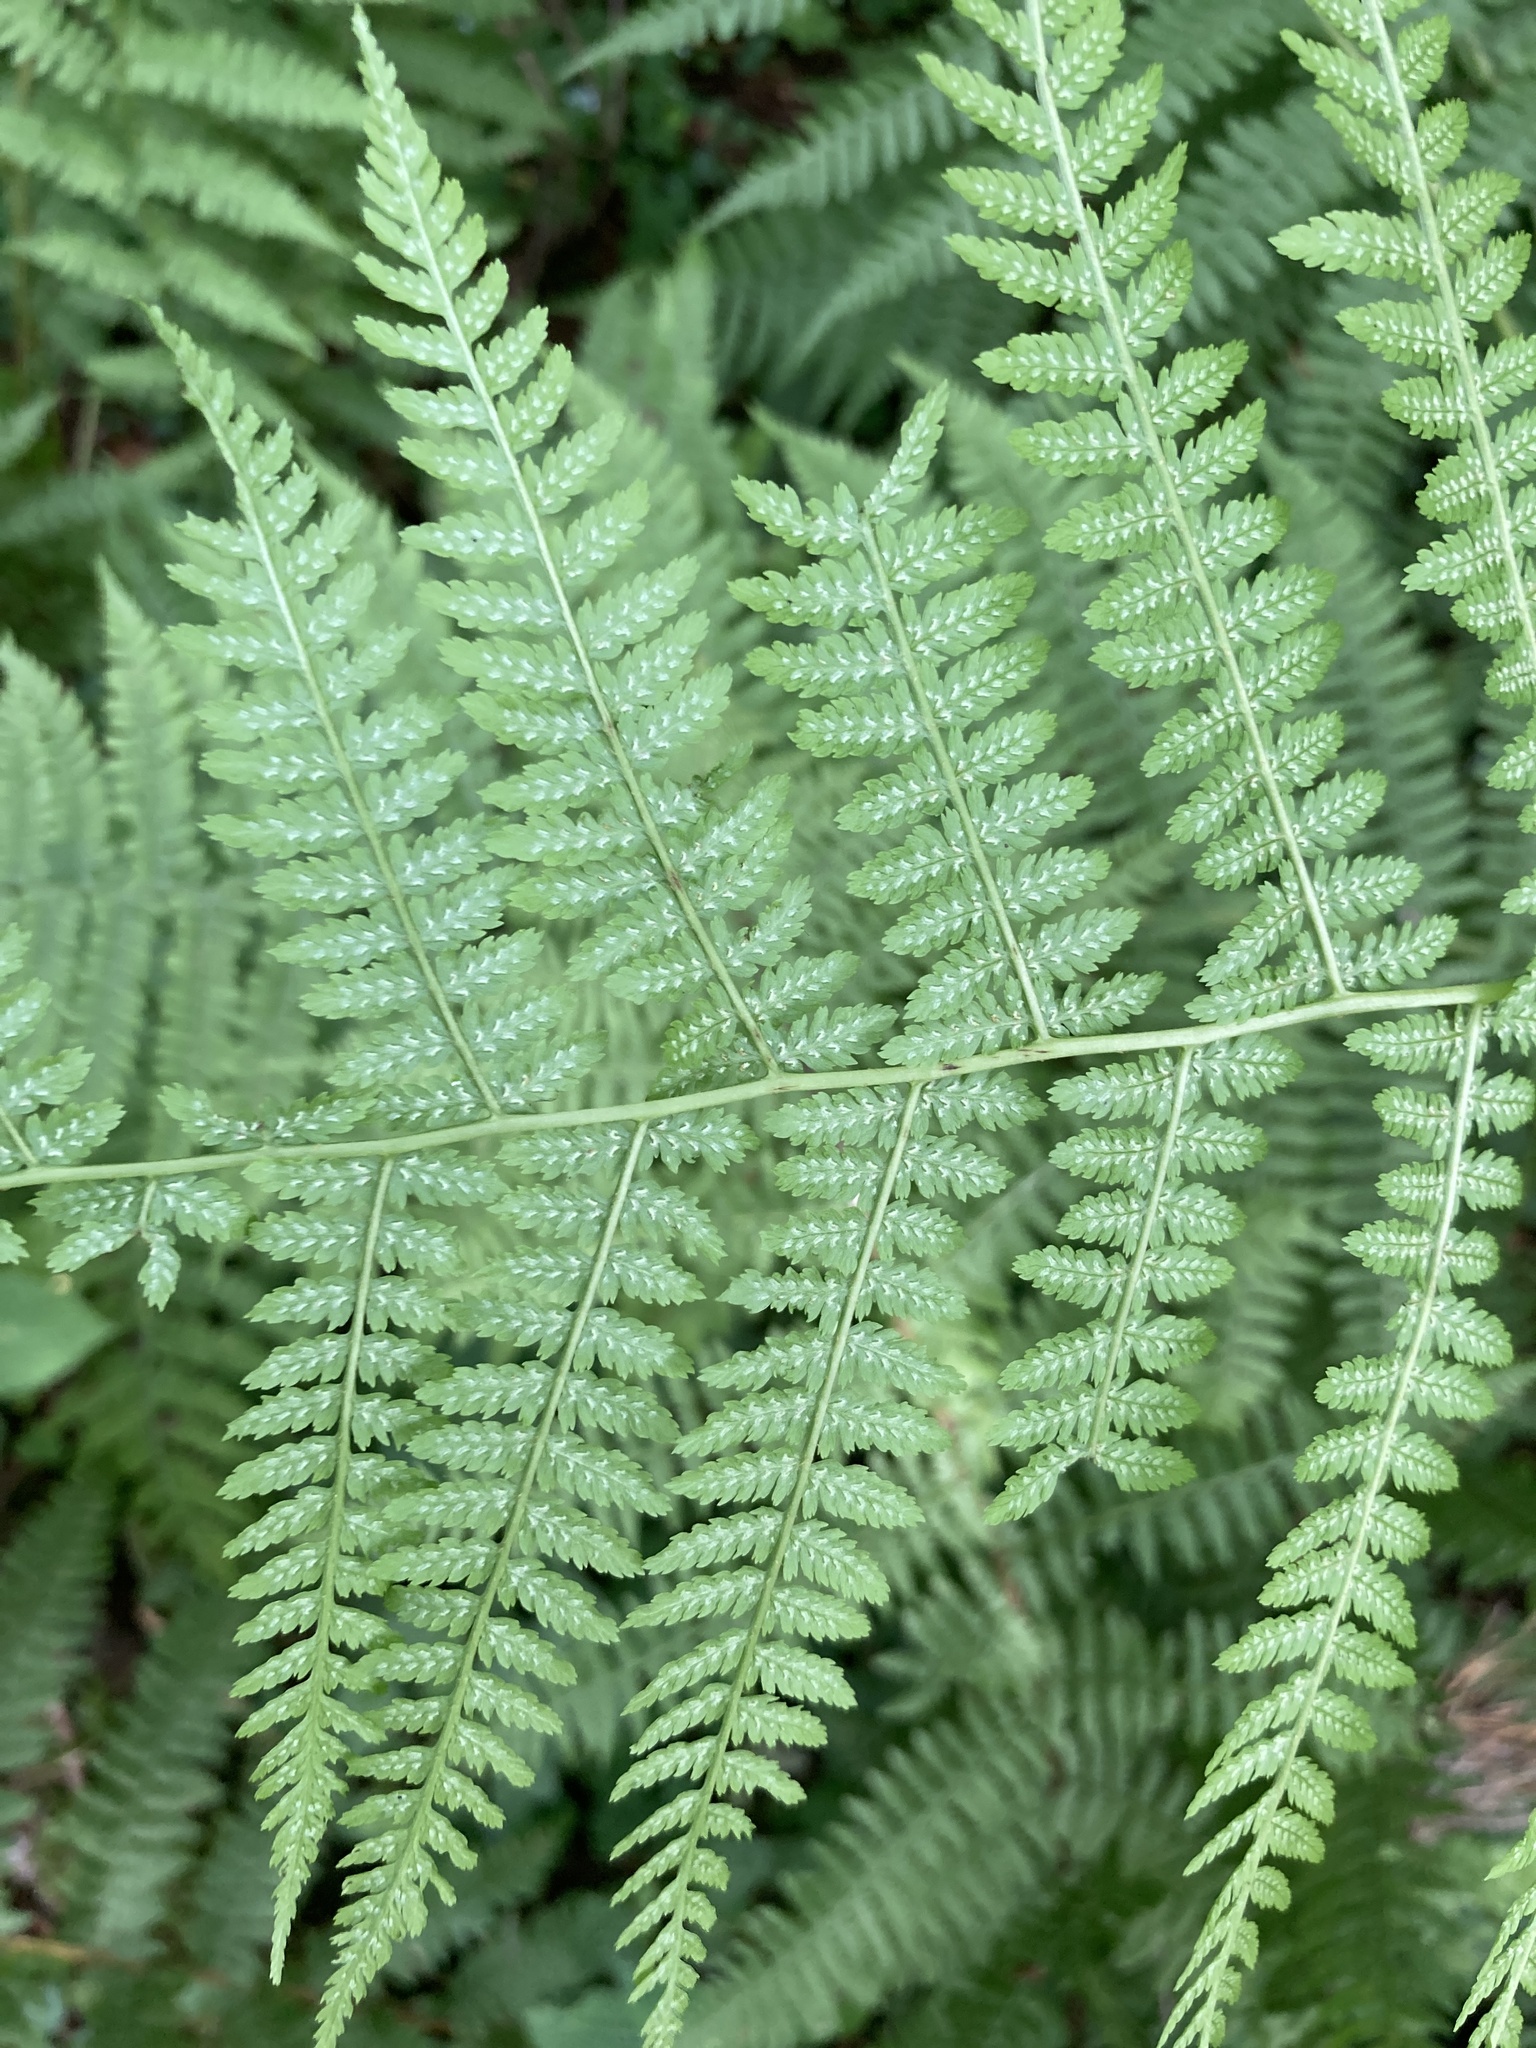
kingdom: Plantae
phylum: Tracheophyta
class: Polypodiopsida
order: Polypodiales
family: Athyriaceae
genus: Athyrium
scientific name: Athyrium filix-femina
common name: Lady fern
